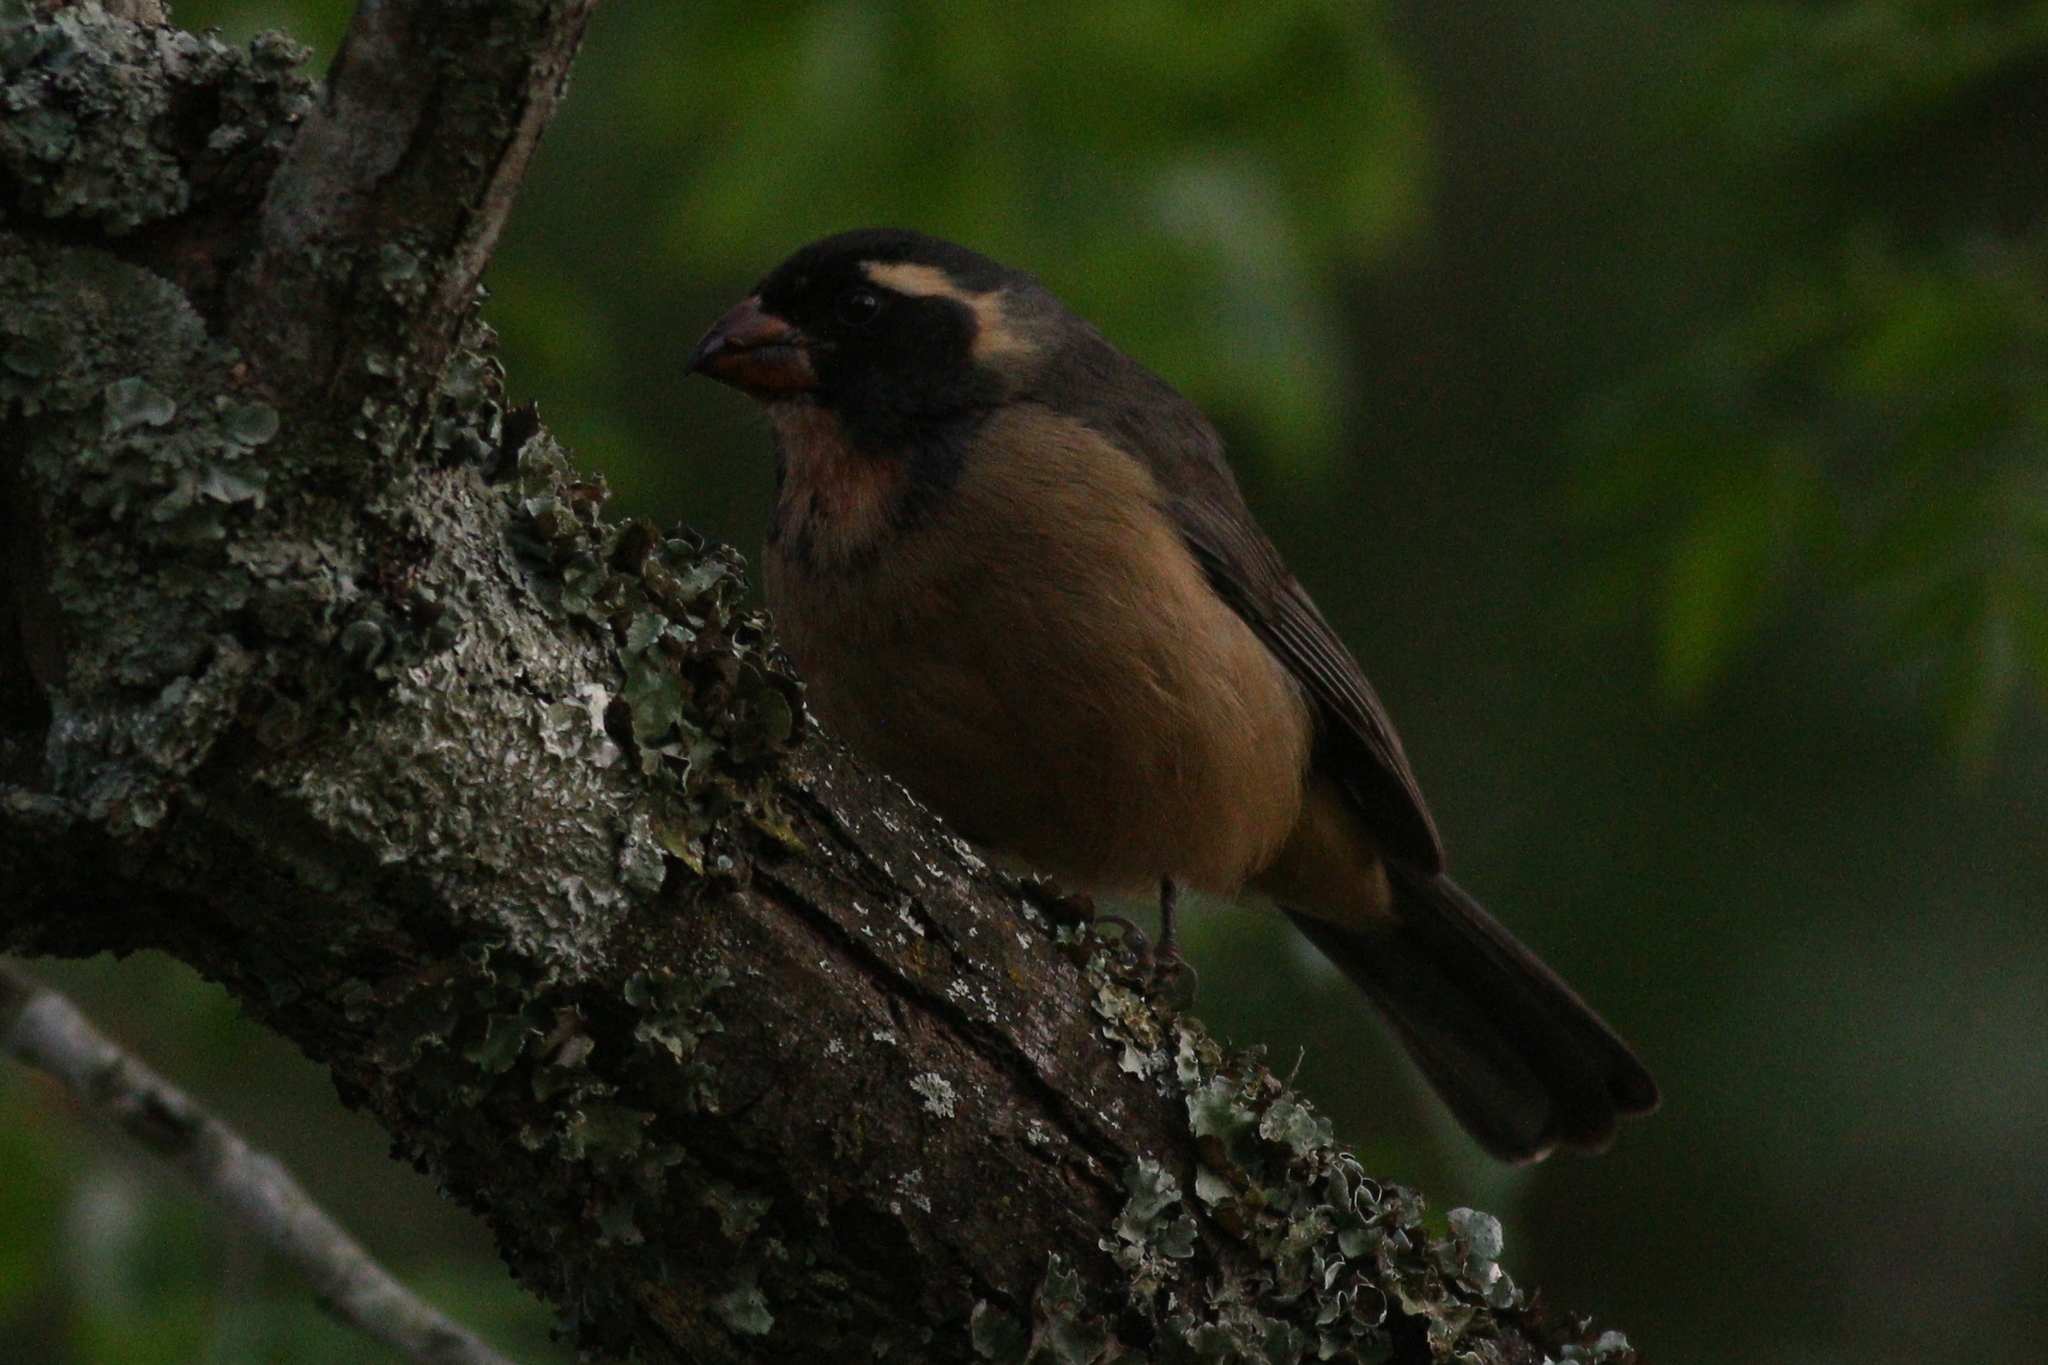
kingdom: Animalia
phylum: Chordata
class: Aves
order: Passeriformes
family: Thraupidae
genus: Saltator
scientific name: Saltator aurantiirostris
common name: Golden-billed saltator
